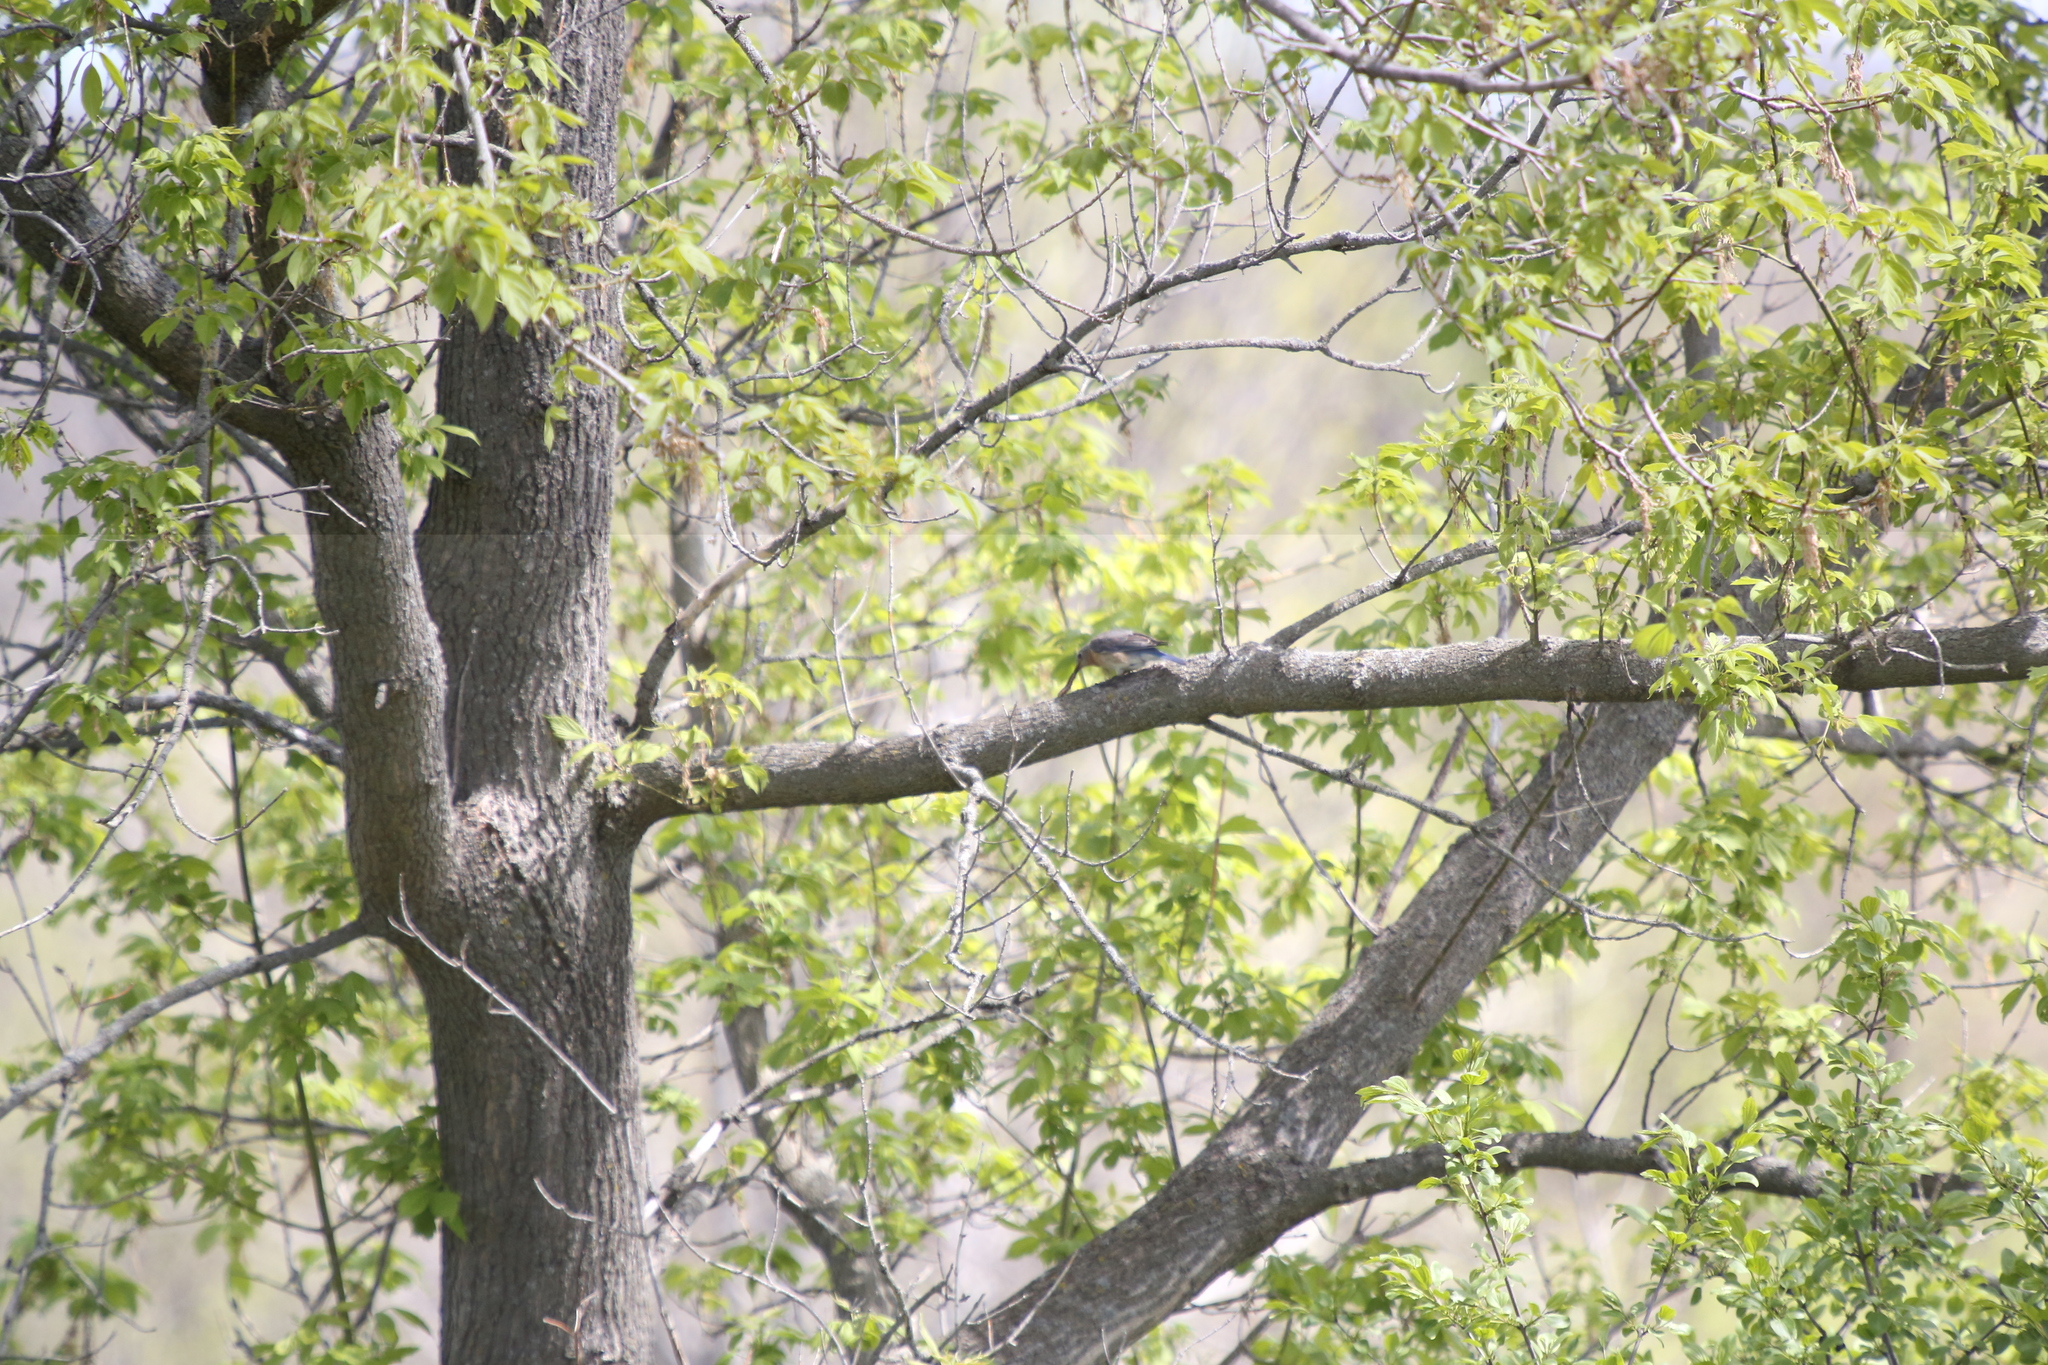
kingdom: Animalia
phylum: Chordata
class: Aves
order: Passeriformes
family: Turdidae
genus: Sialia
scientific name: Sialia sialis
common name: Eastern bluebird
